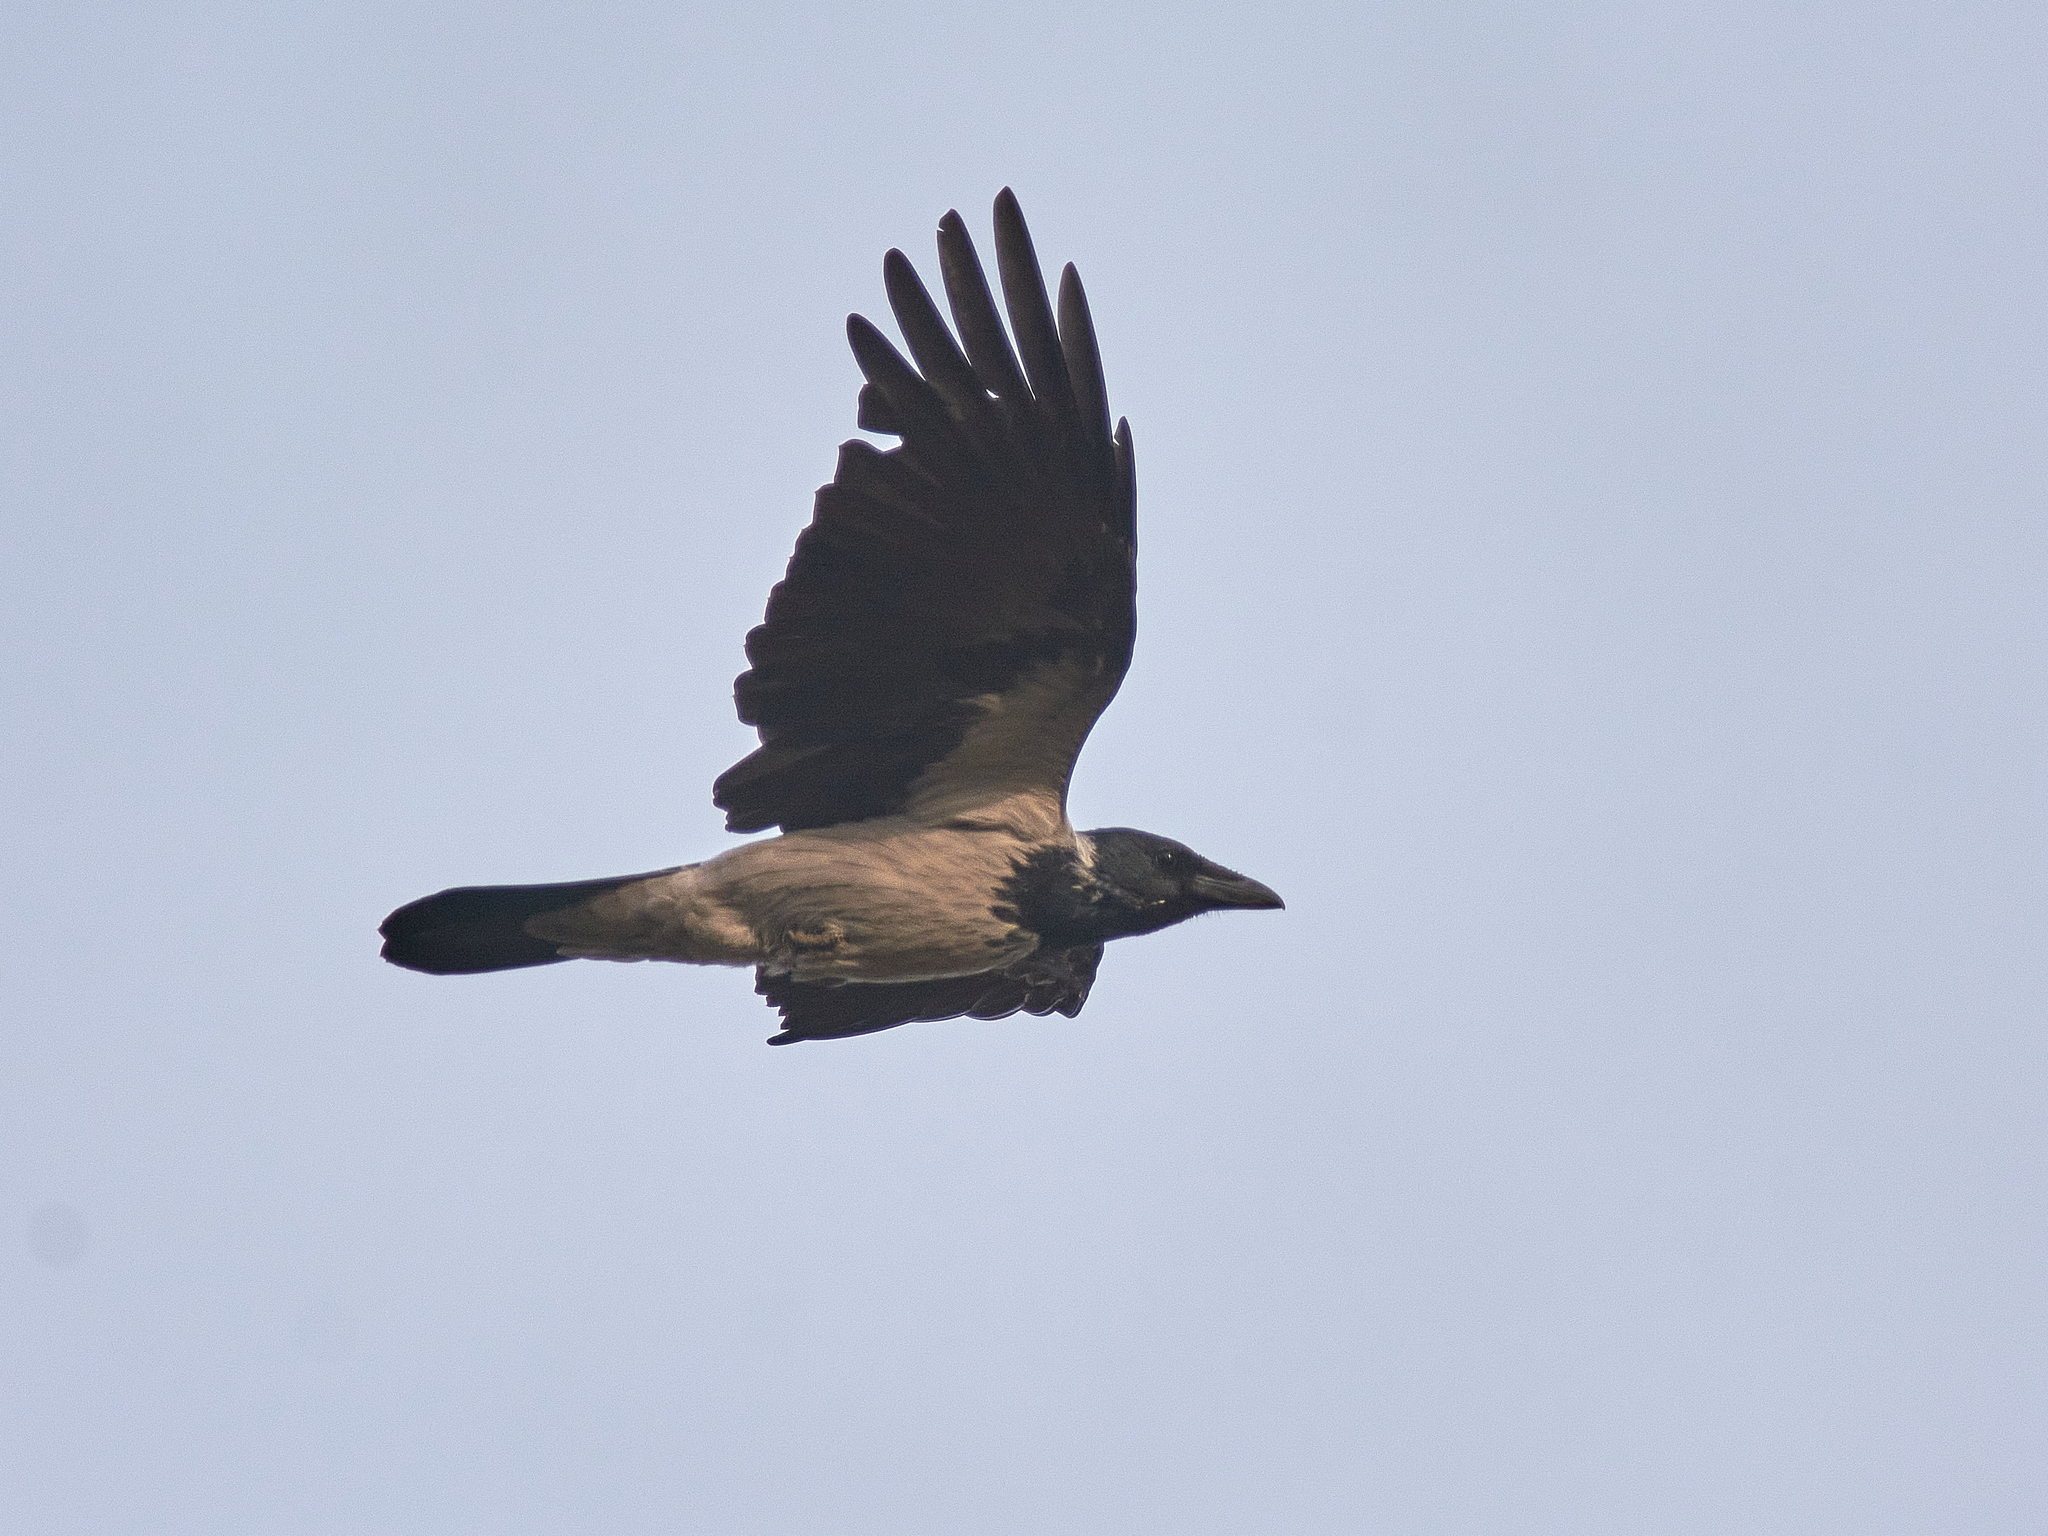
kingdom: Animalia
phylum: Chordata
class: Aves
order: Passeriformes
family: Corvidae
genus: Corvus
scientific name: Corvus cornix
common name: Hooded crow
